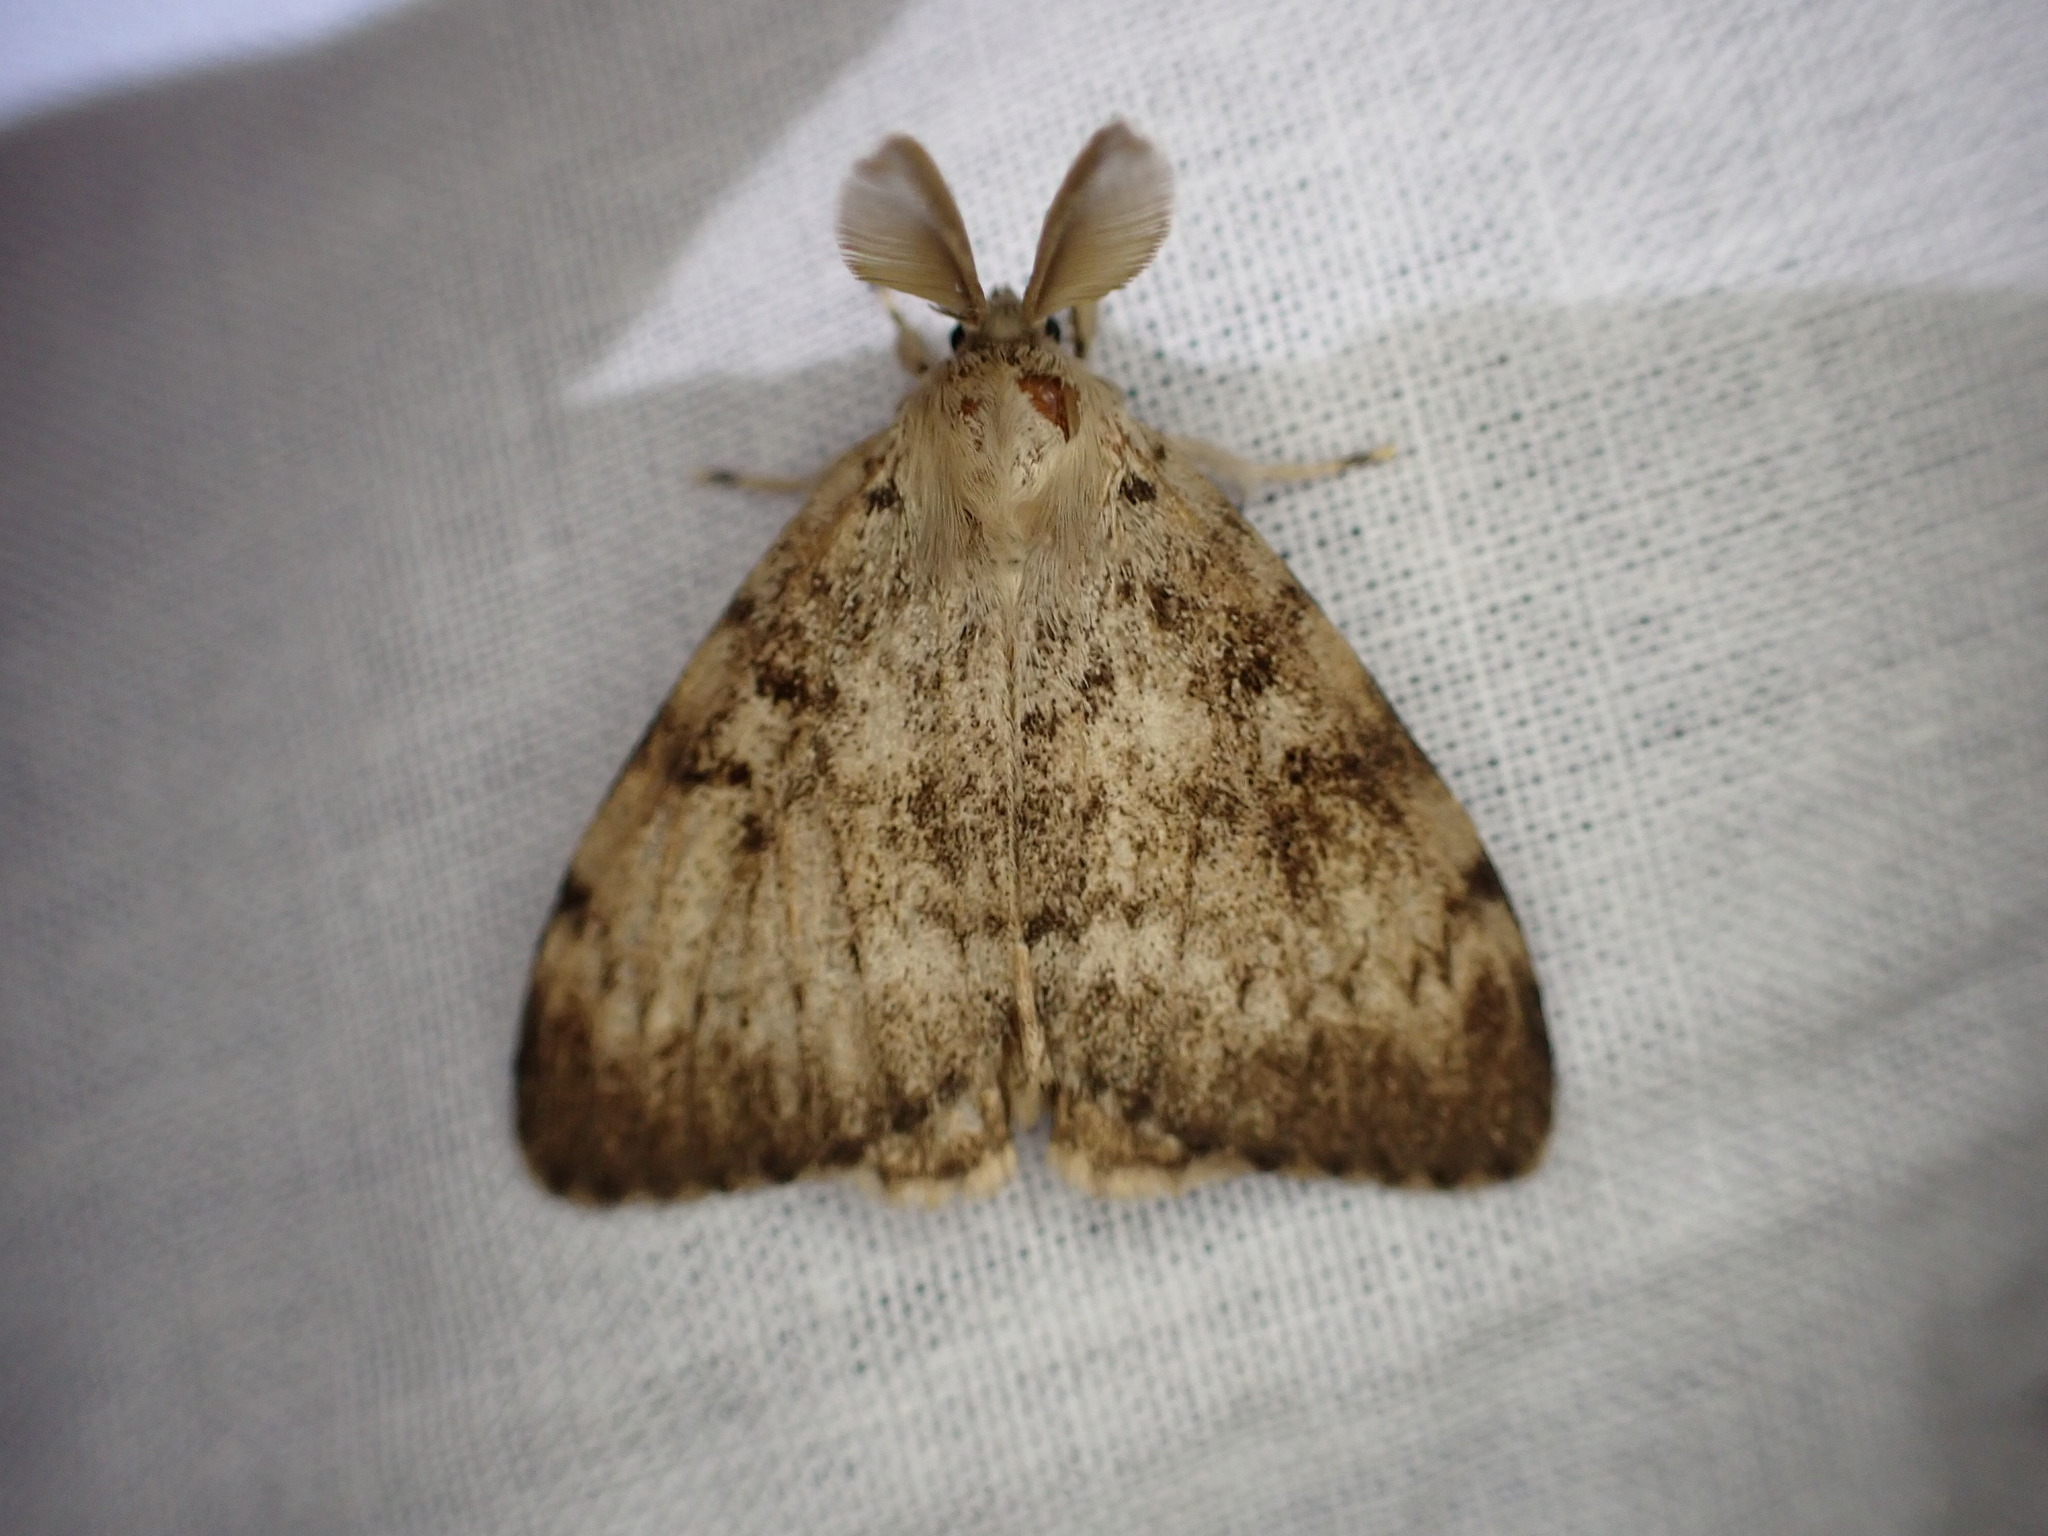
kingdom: Animalia
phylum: Arthropoda
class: Insecta
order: Lepidoptera
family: Erebidae
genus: Lymantria
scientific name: Lymantria dispar
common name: Gypsy moth
